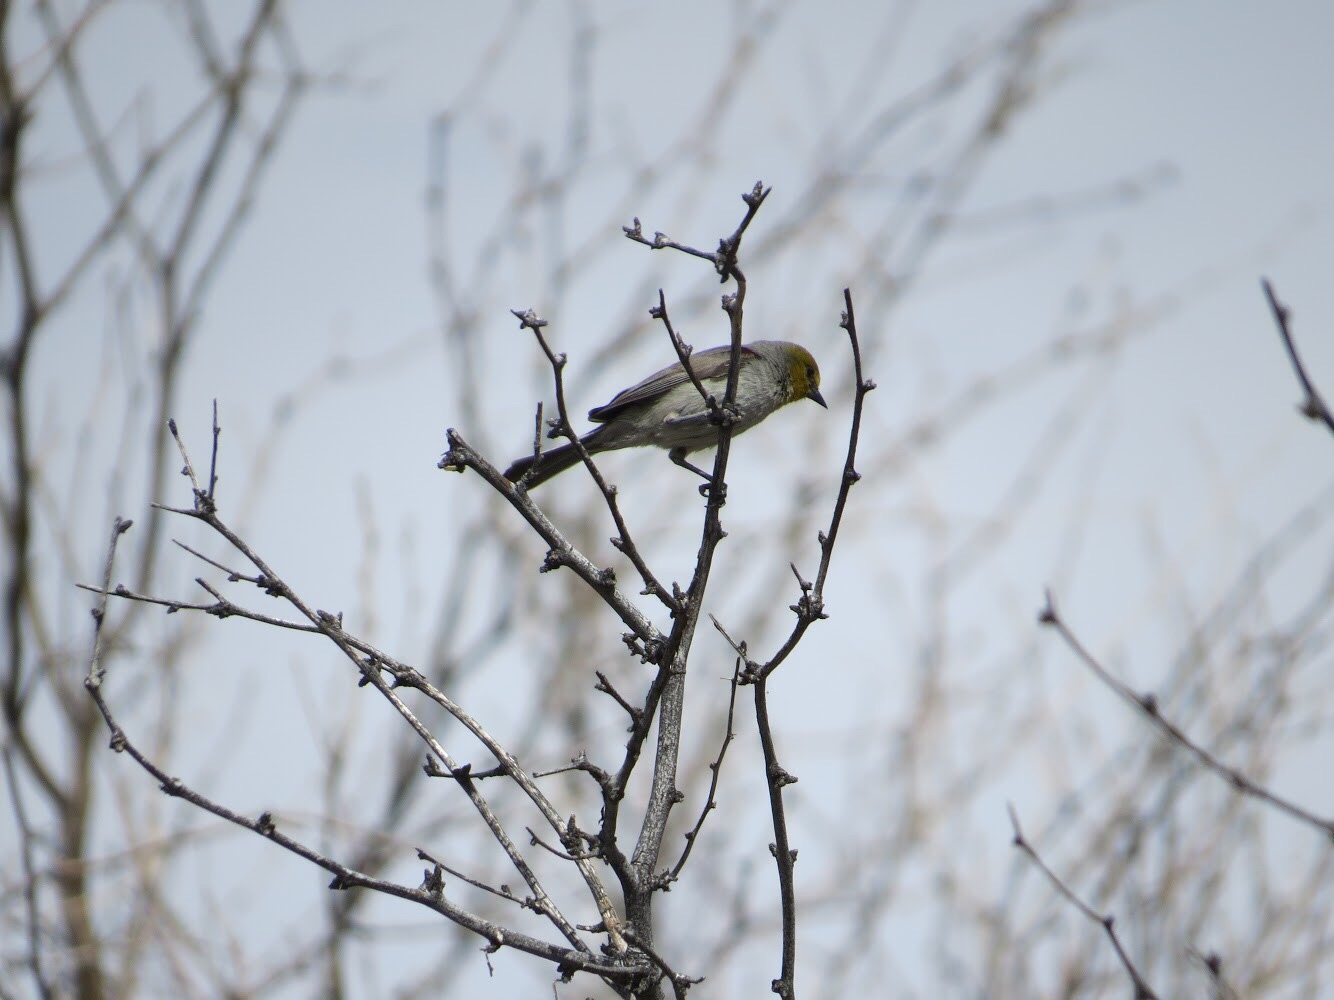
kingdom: Animalia
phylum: Chordata
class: Aves
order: Passeriformes
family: Remizidae
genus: Auriparus
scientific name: Auriparus flaviceps
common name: Verdin
